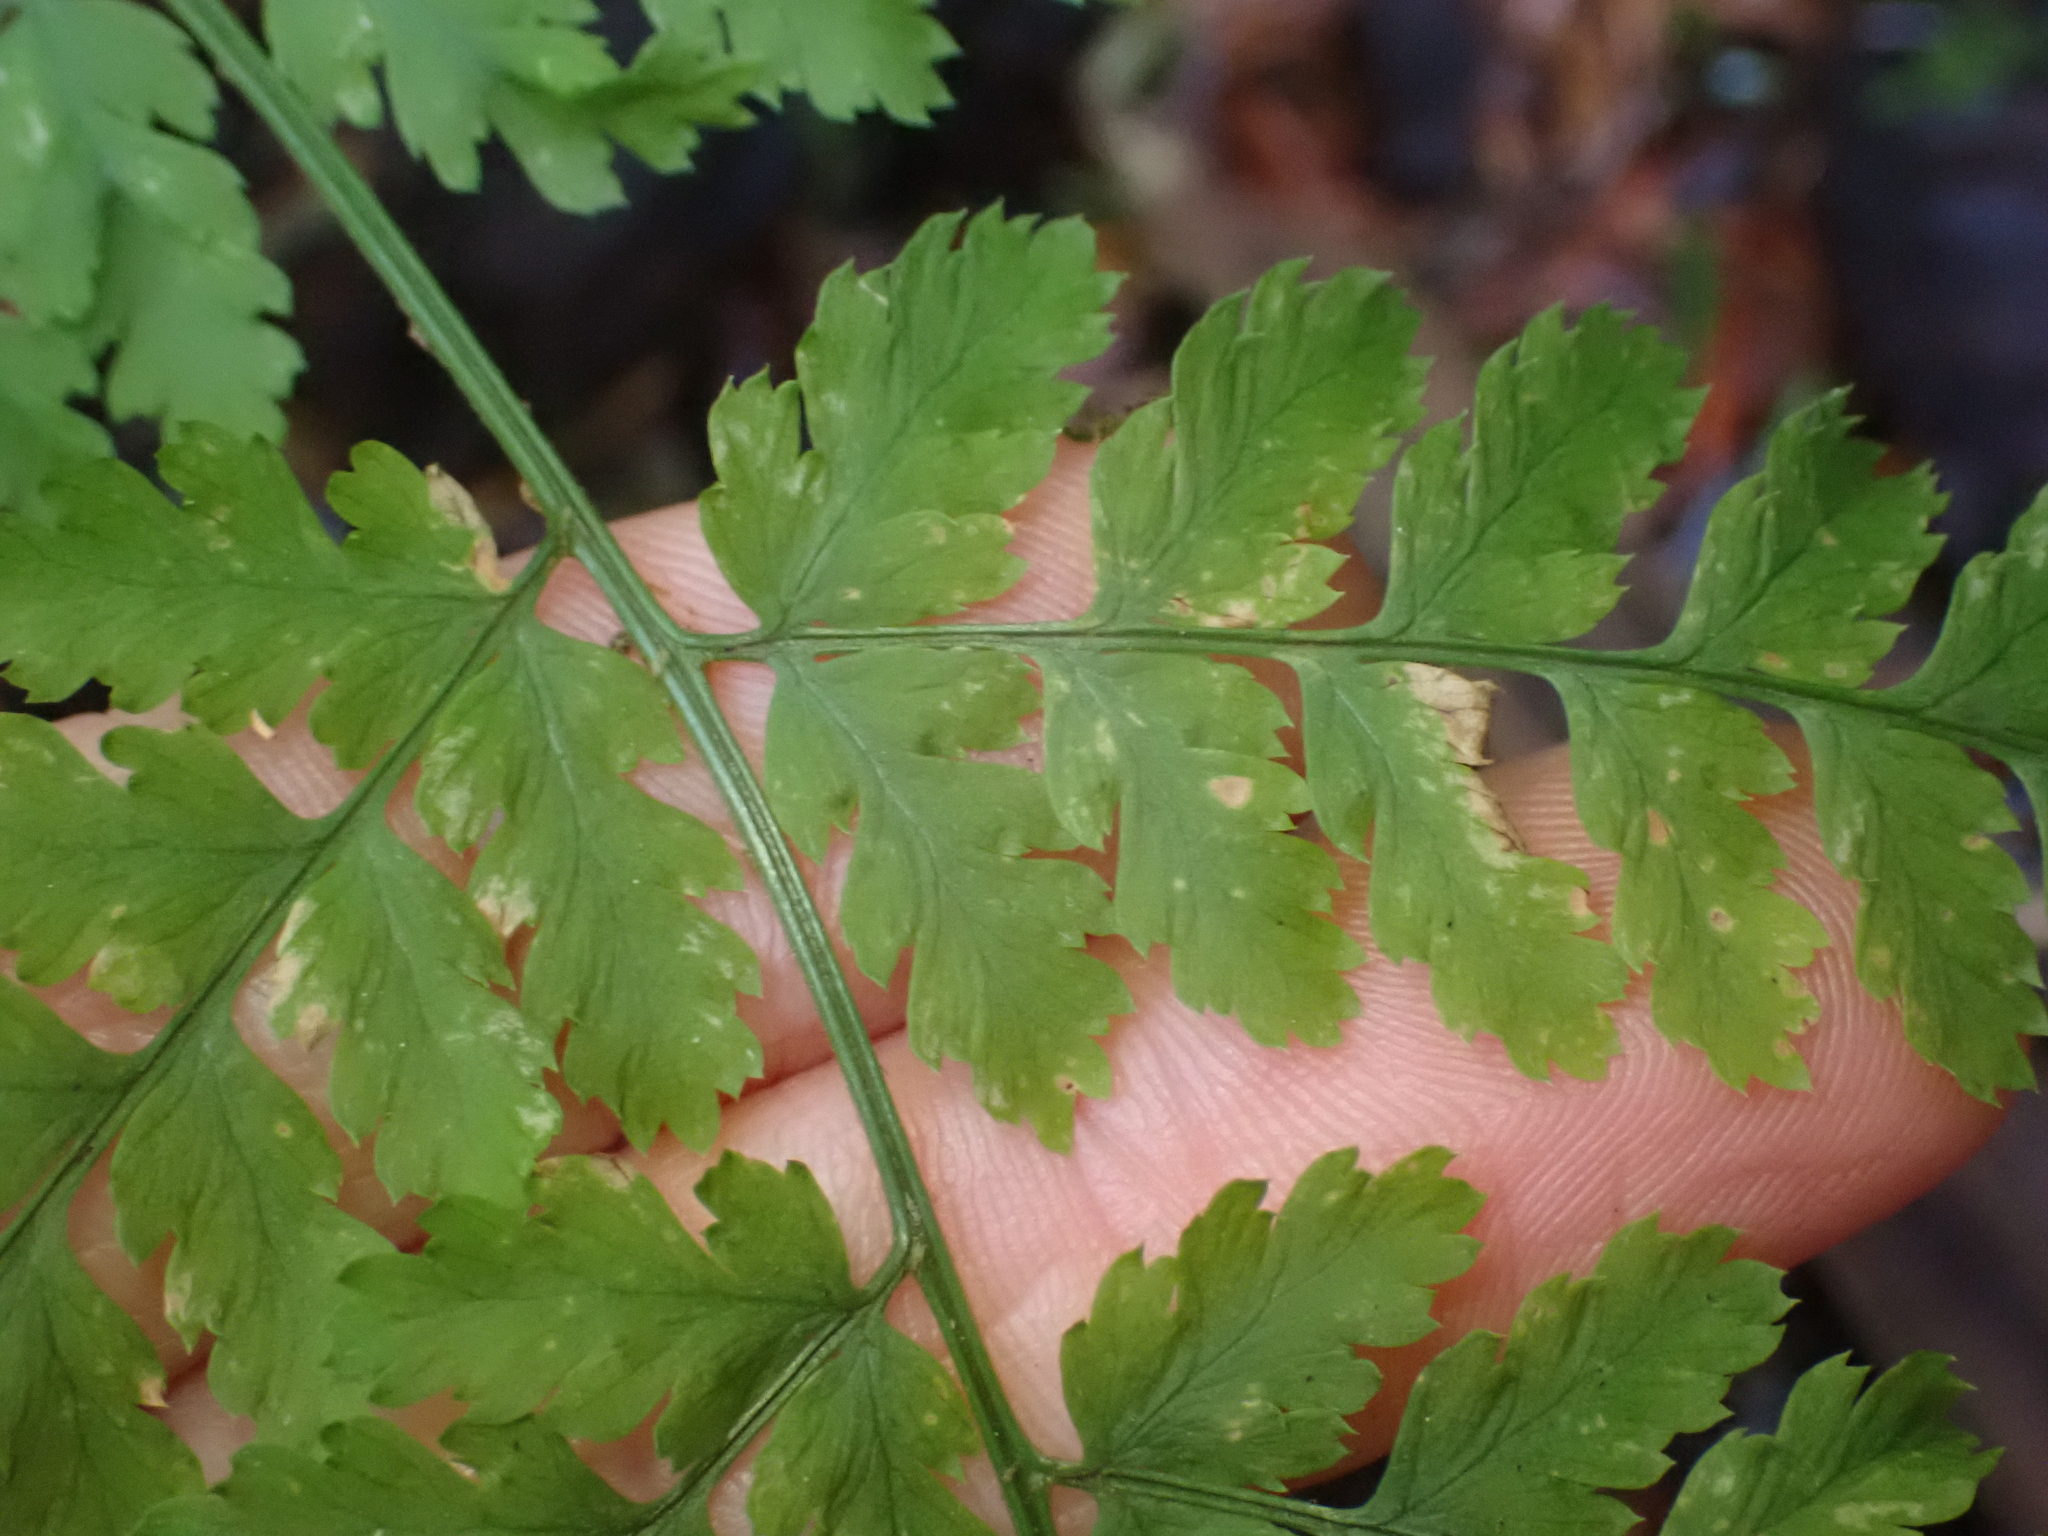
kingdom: Plantae
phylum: Tracheophyta
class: Polypodiopsida
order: Polypodiales
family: Dryopteridaceae
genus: Dryopteris
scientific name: Dryopteris expansa
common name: Northern buckler fern
